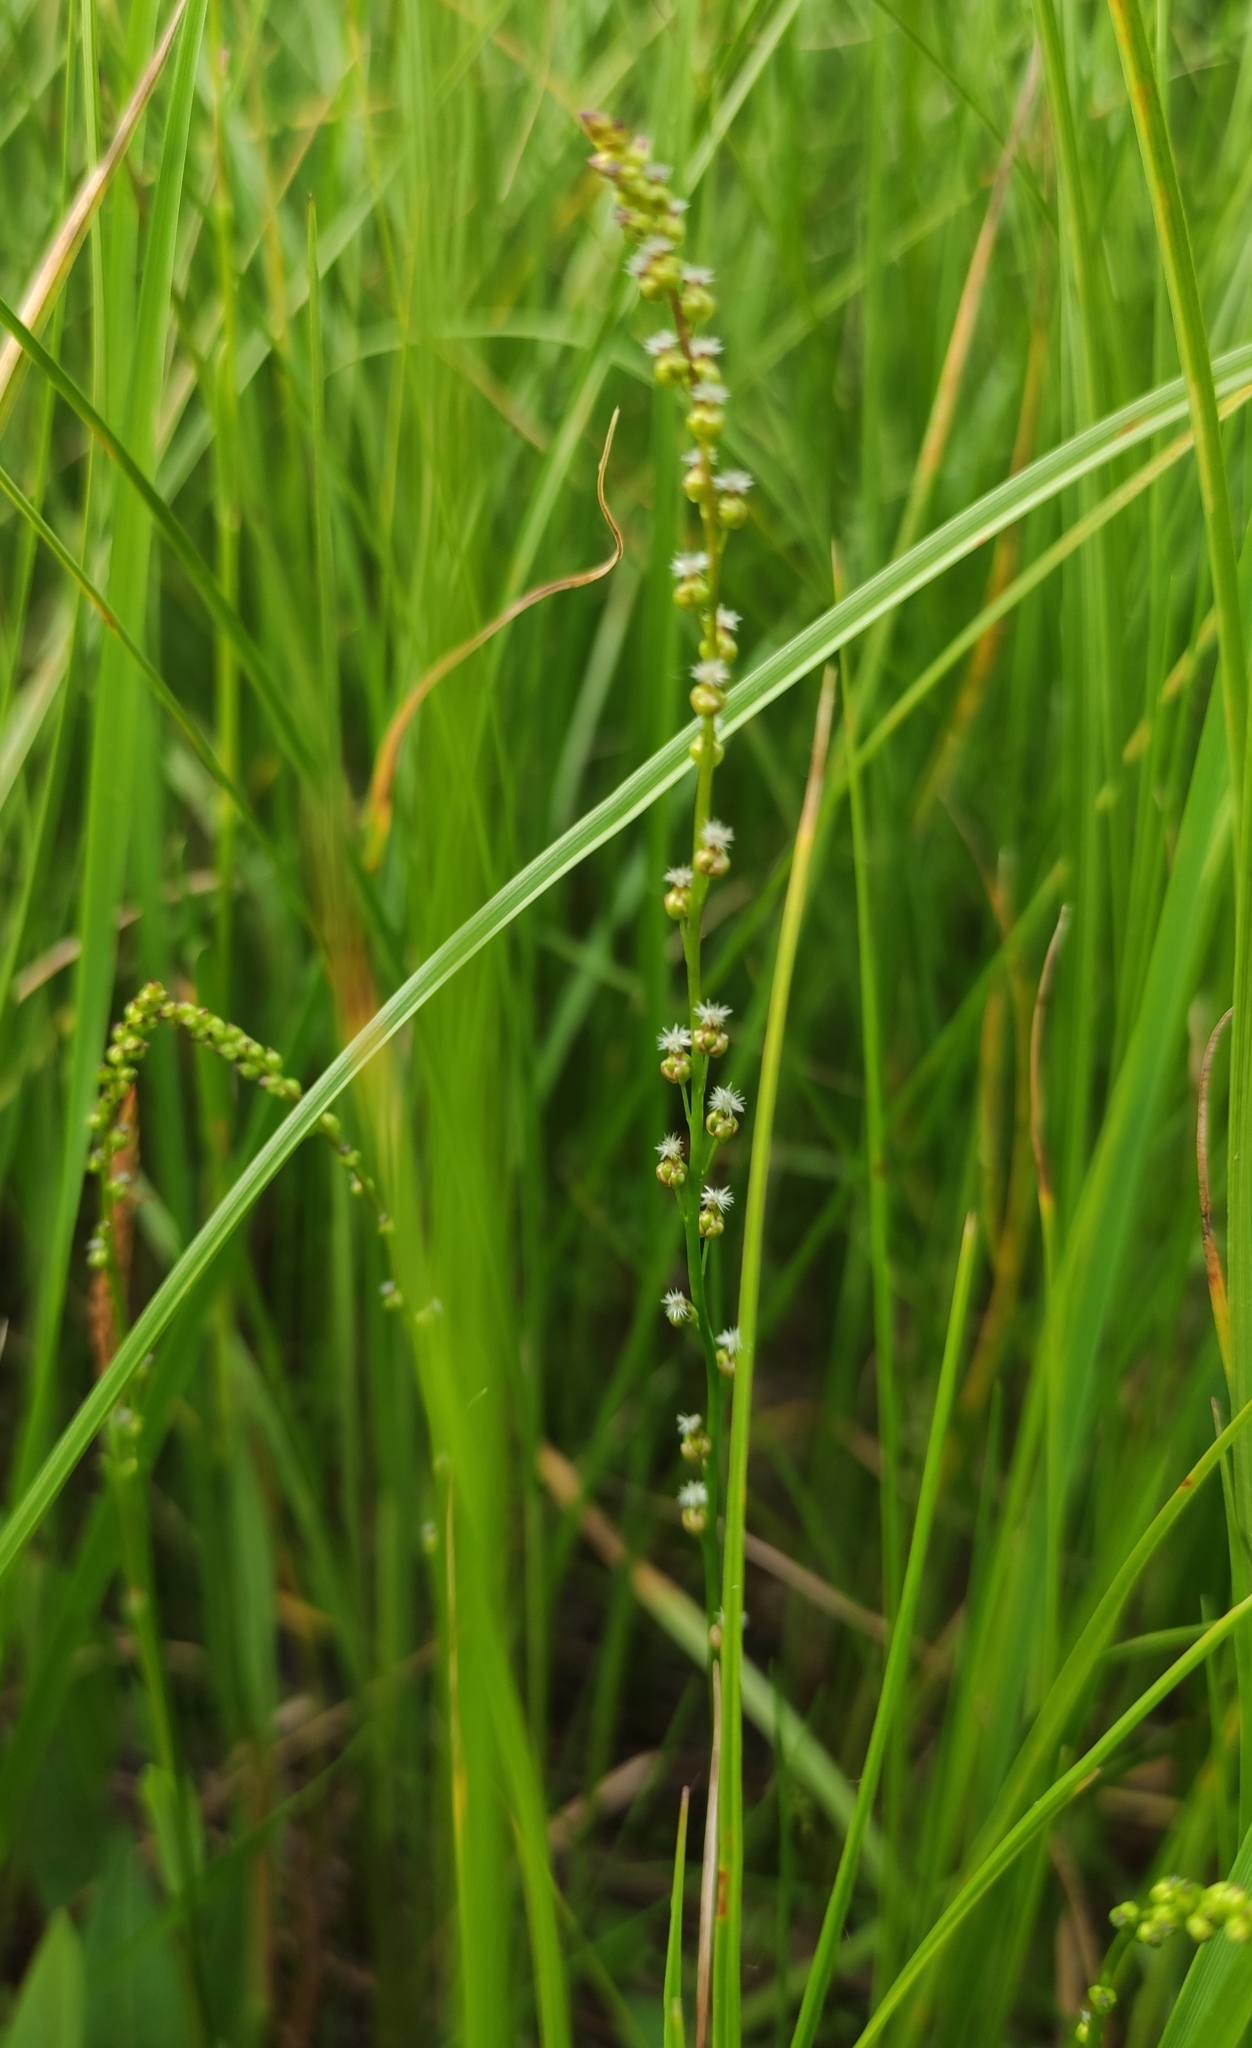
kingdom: Plantae
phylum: Tracheophyta
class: Liliopsida
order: Alismatales
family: Juncaginaceae
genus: Triglochin
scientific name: Triglochin palustris
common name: Marsh arrowgrass
